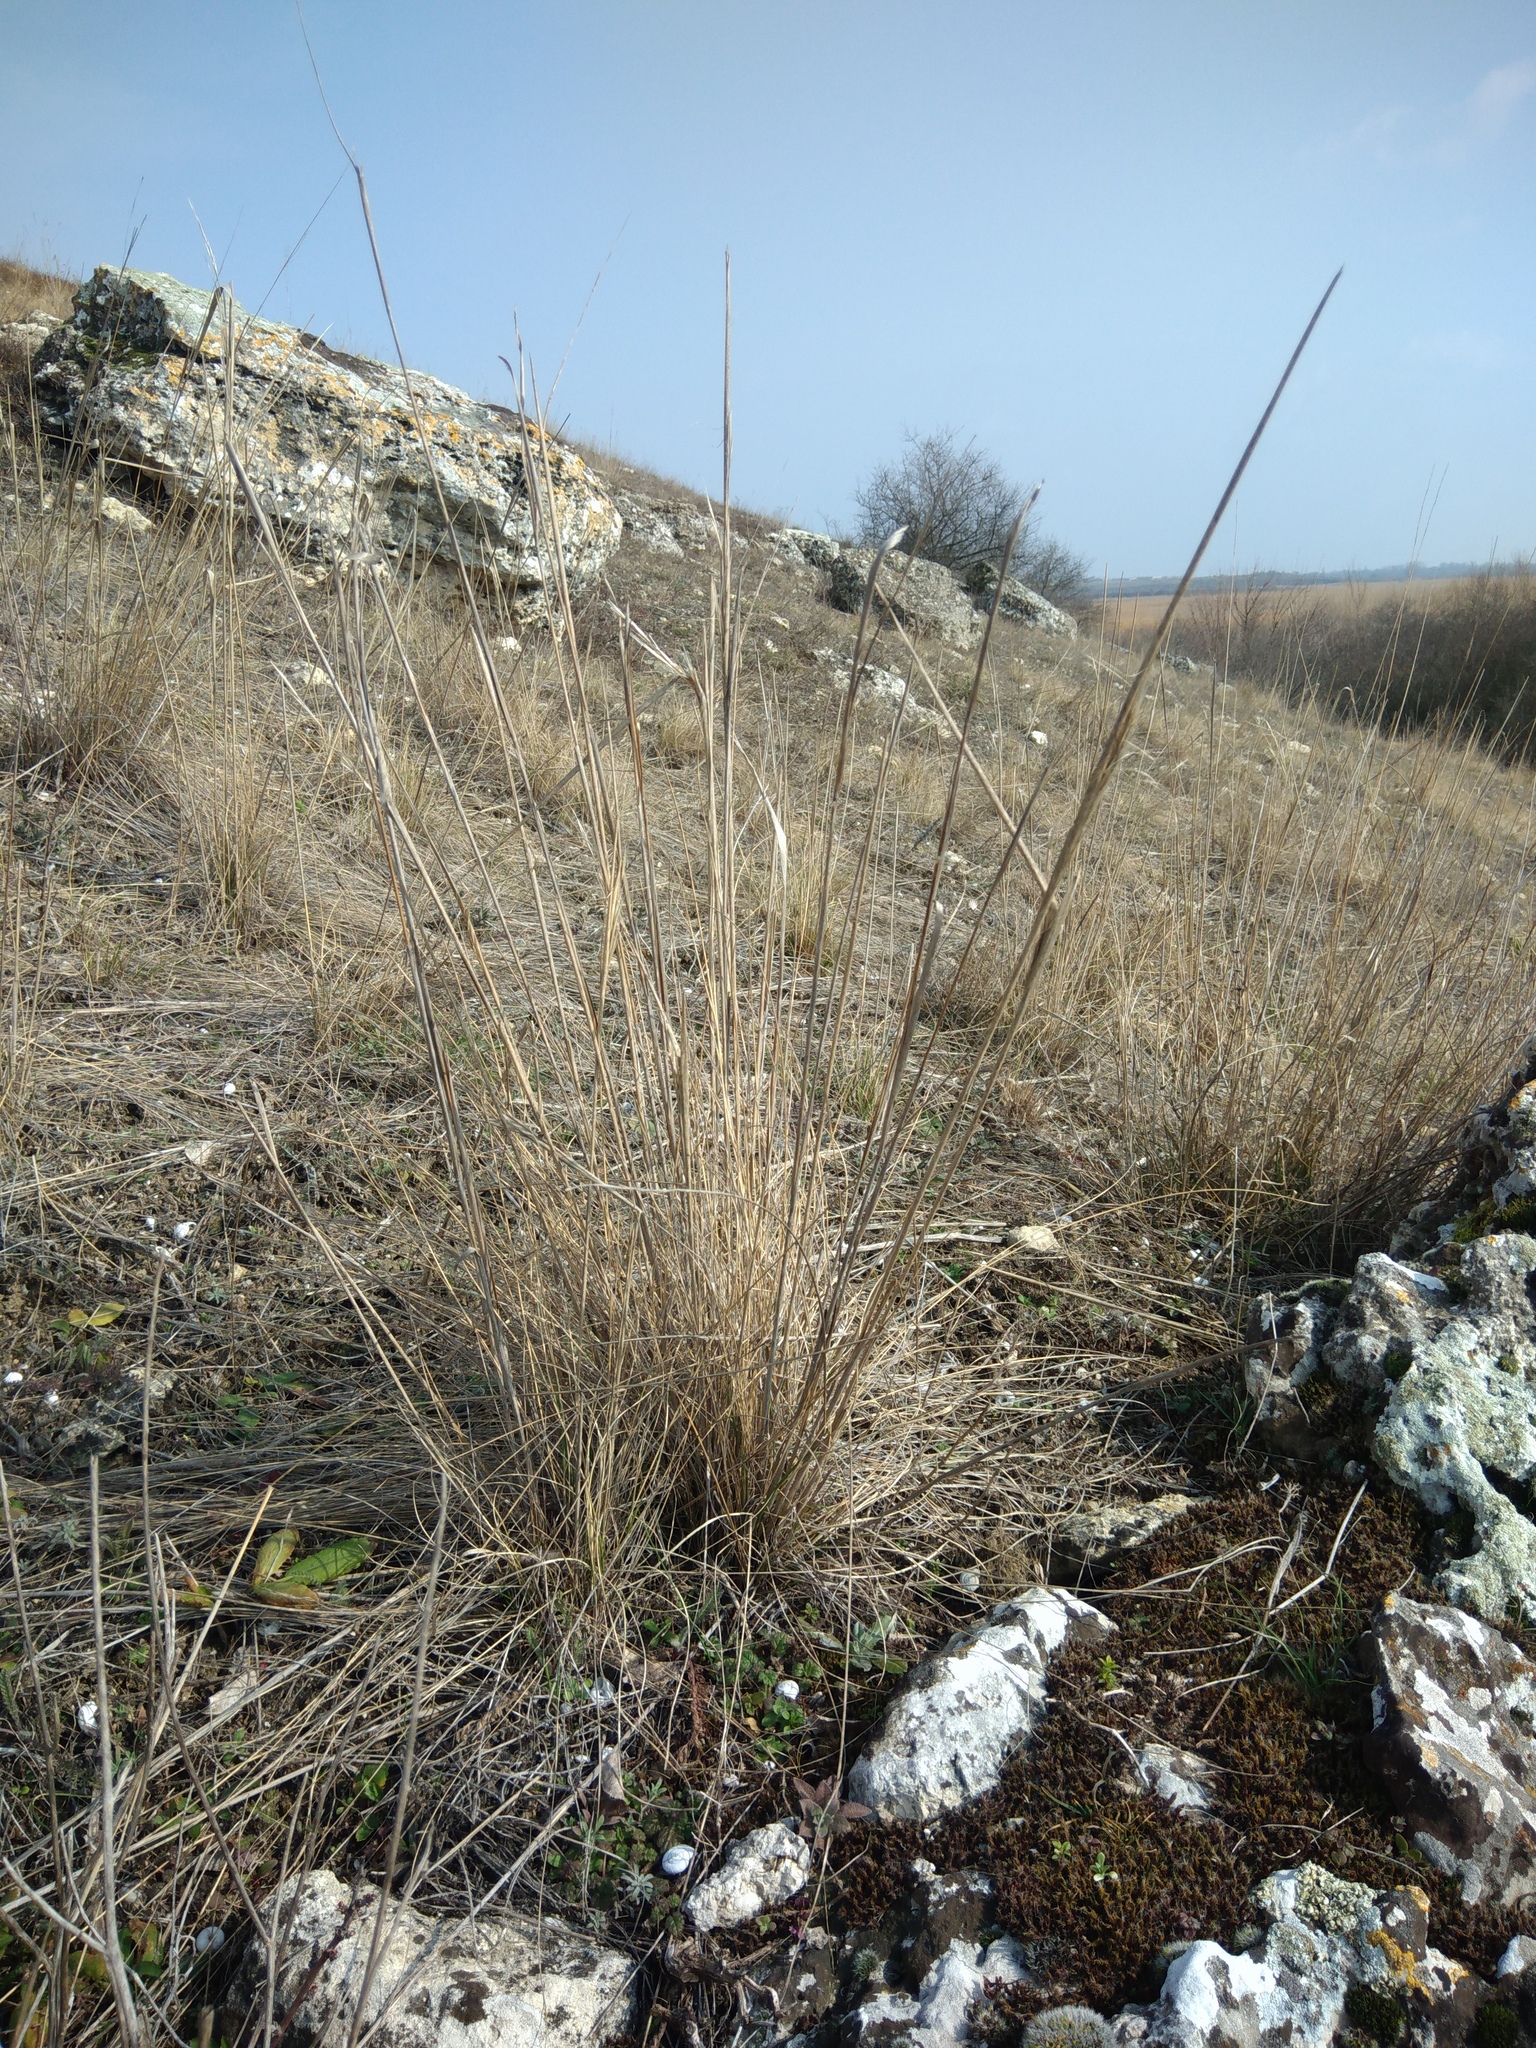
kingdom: Plantae
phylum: Tracheophyta
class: Liliopsida
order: Poales
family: Poaceae
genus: Stipa
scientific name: Stipa capillata
